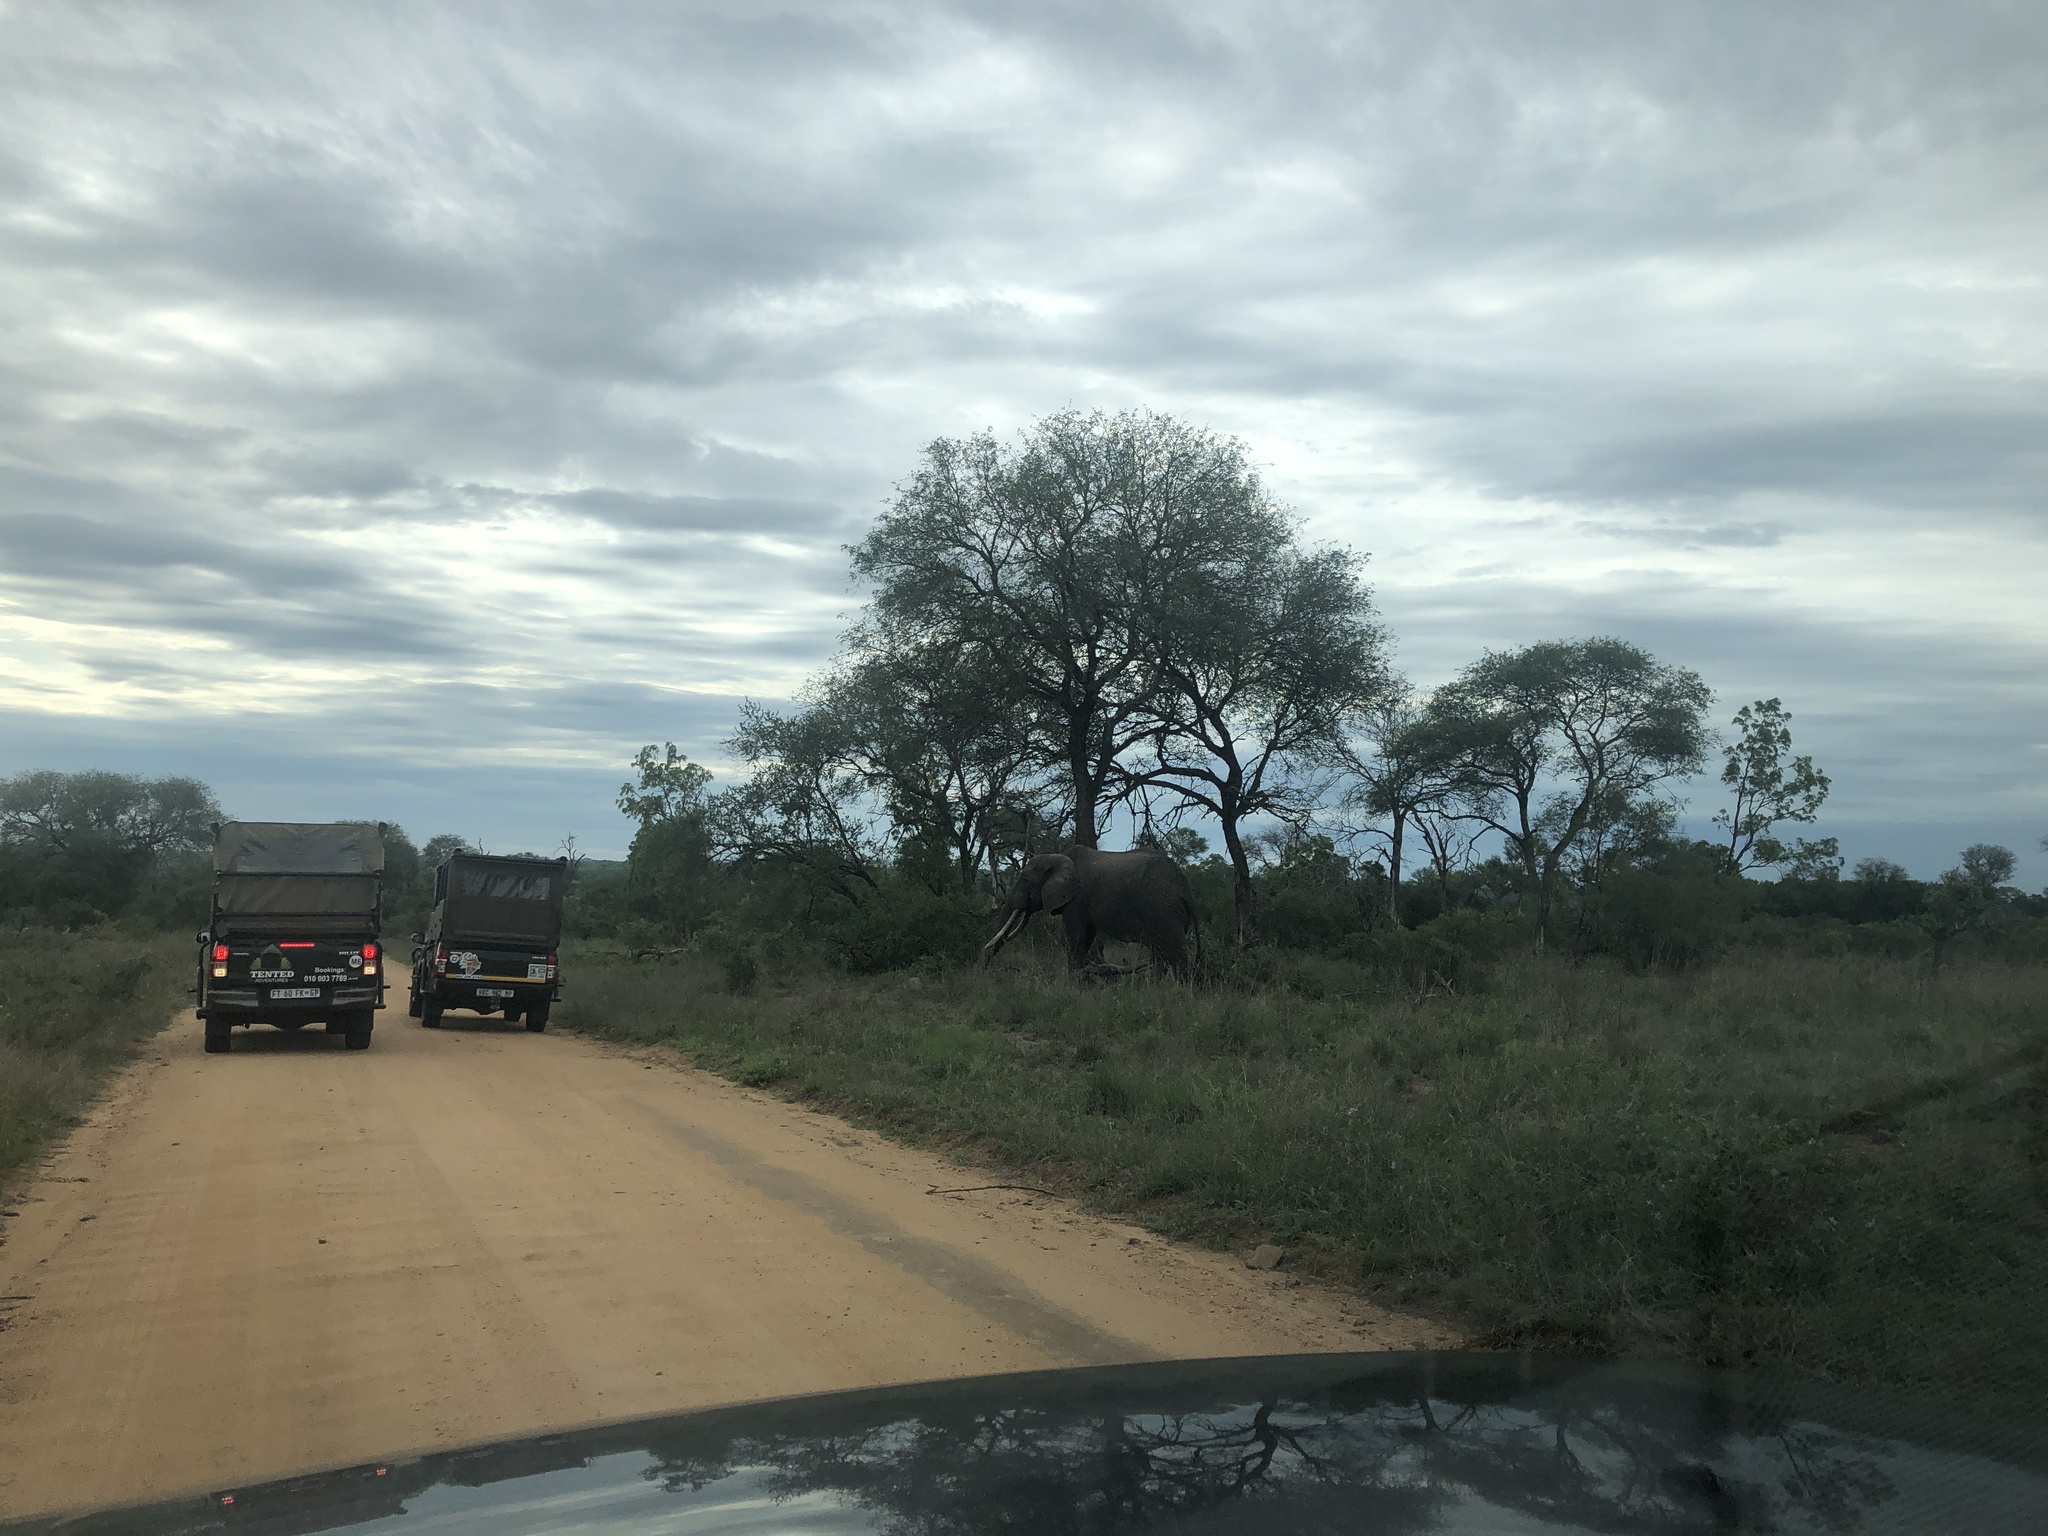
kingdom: Animalia
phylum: Chordata
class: Mammalia
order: Proboscidea
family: Elephantidae
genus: Loxodonta
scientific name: Loxodonta africana
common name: African elephant
